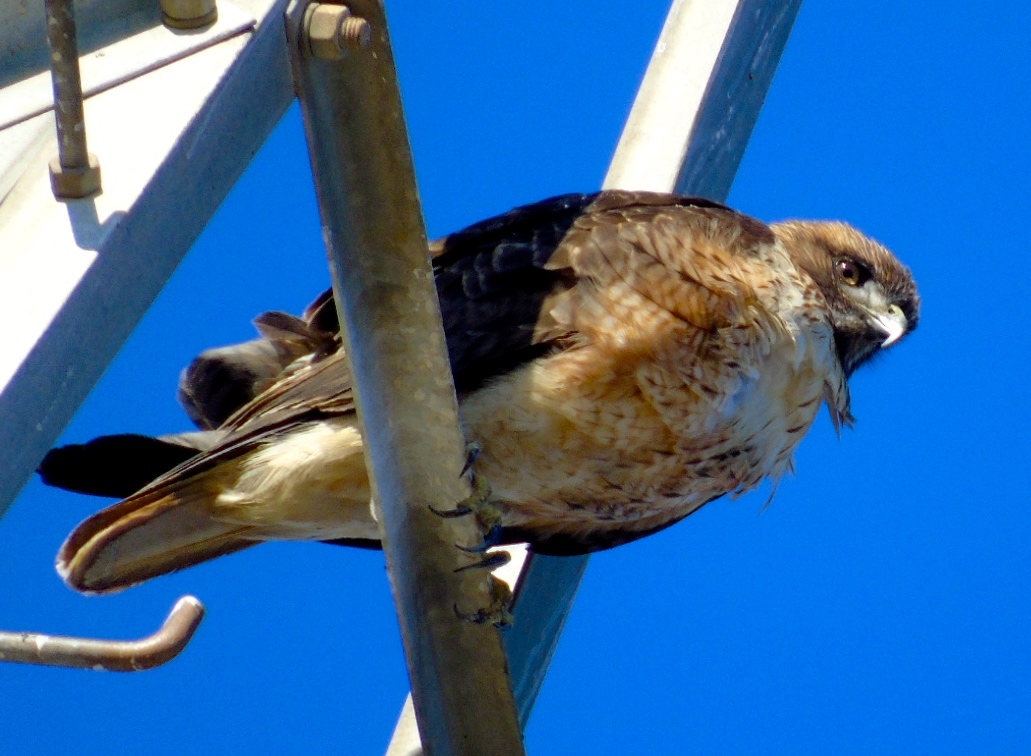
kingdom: Animalia
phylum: Chordata
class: Aves
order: Accipitriformes
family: Accipitridae
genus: Buteo
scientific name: Buteo jamaicensis
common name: Red-tailed hawk
